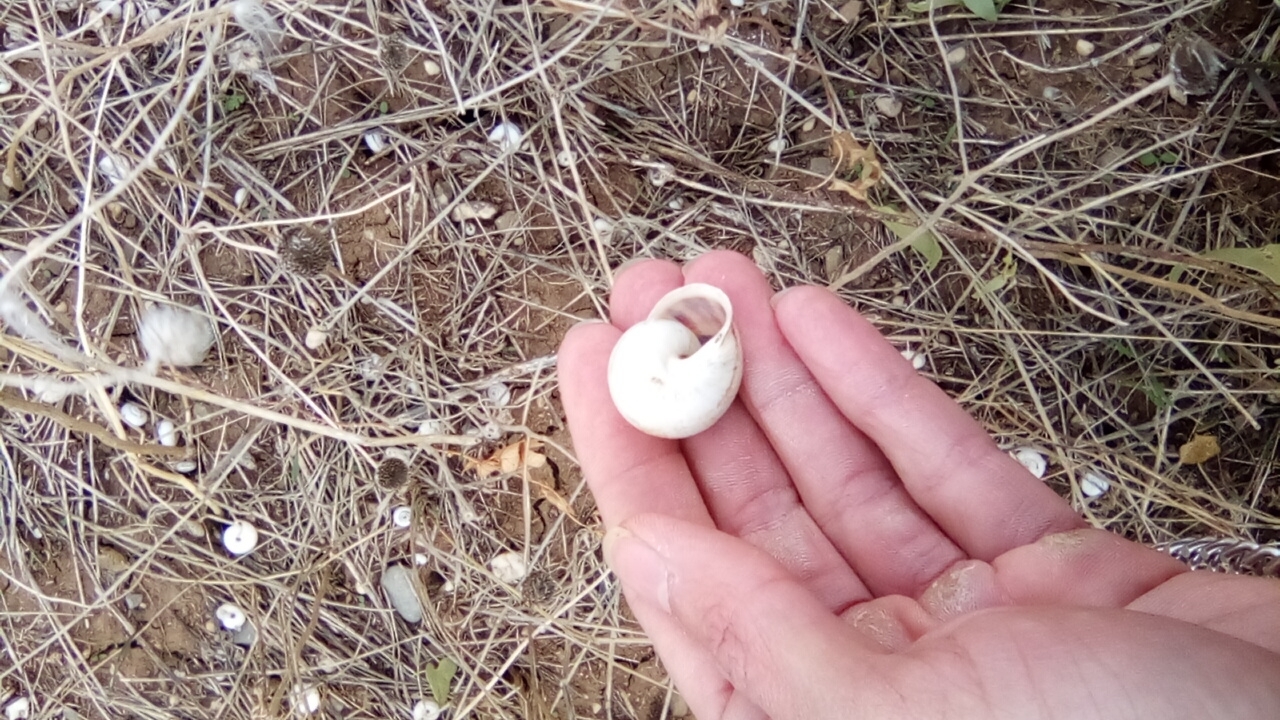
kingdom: Animalia
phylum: Mollusca
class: Gastropoda
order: Stylommatophora
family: Helicidae
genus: Eobania
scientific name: Eobania vermiculata
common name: Chocolateband snail
